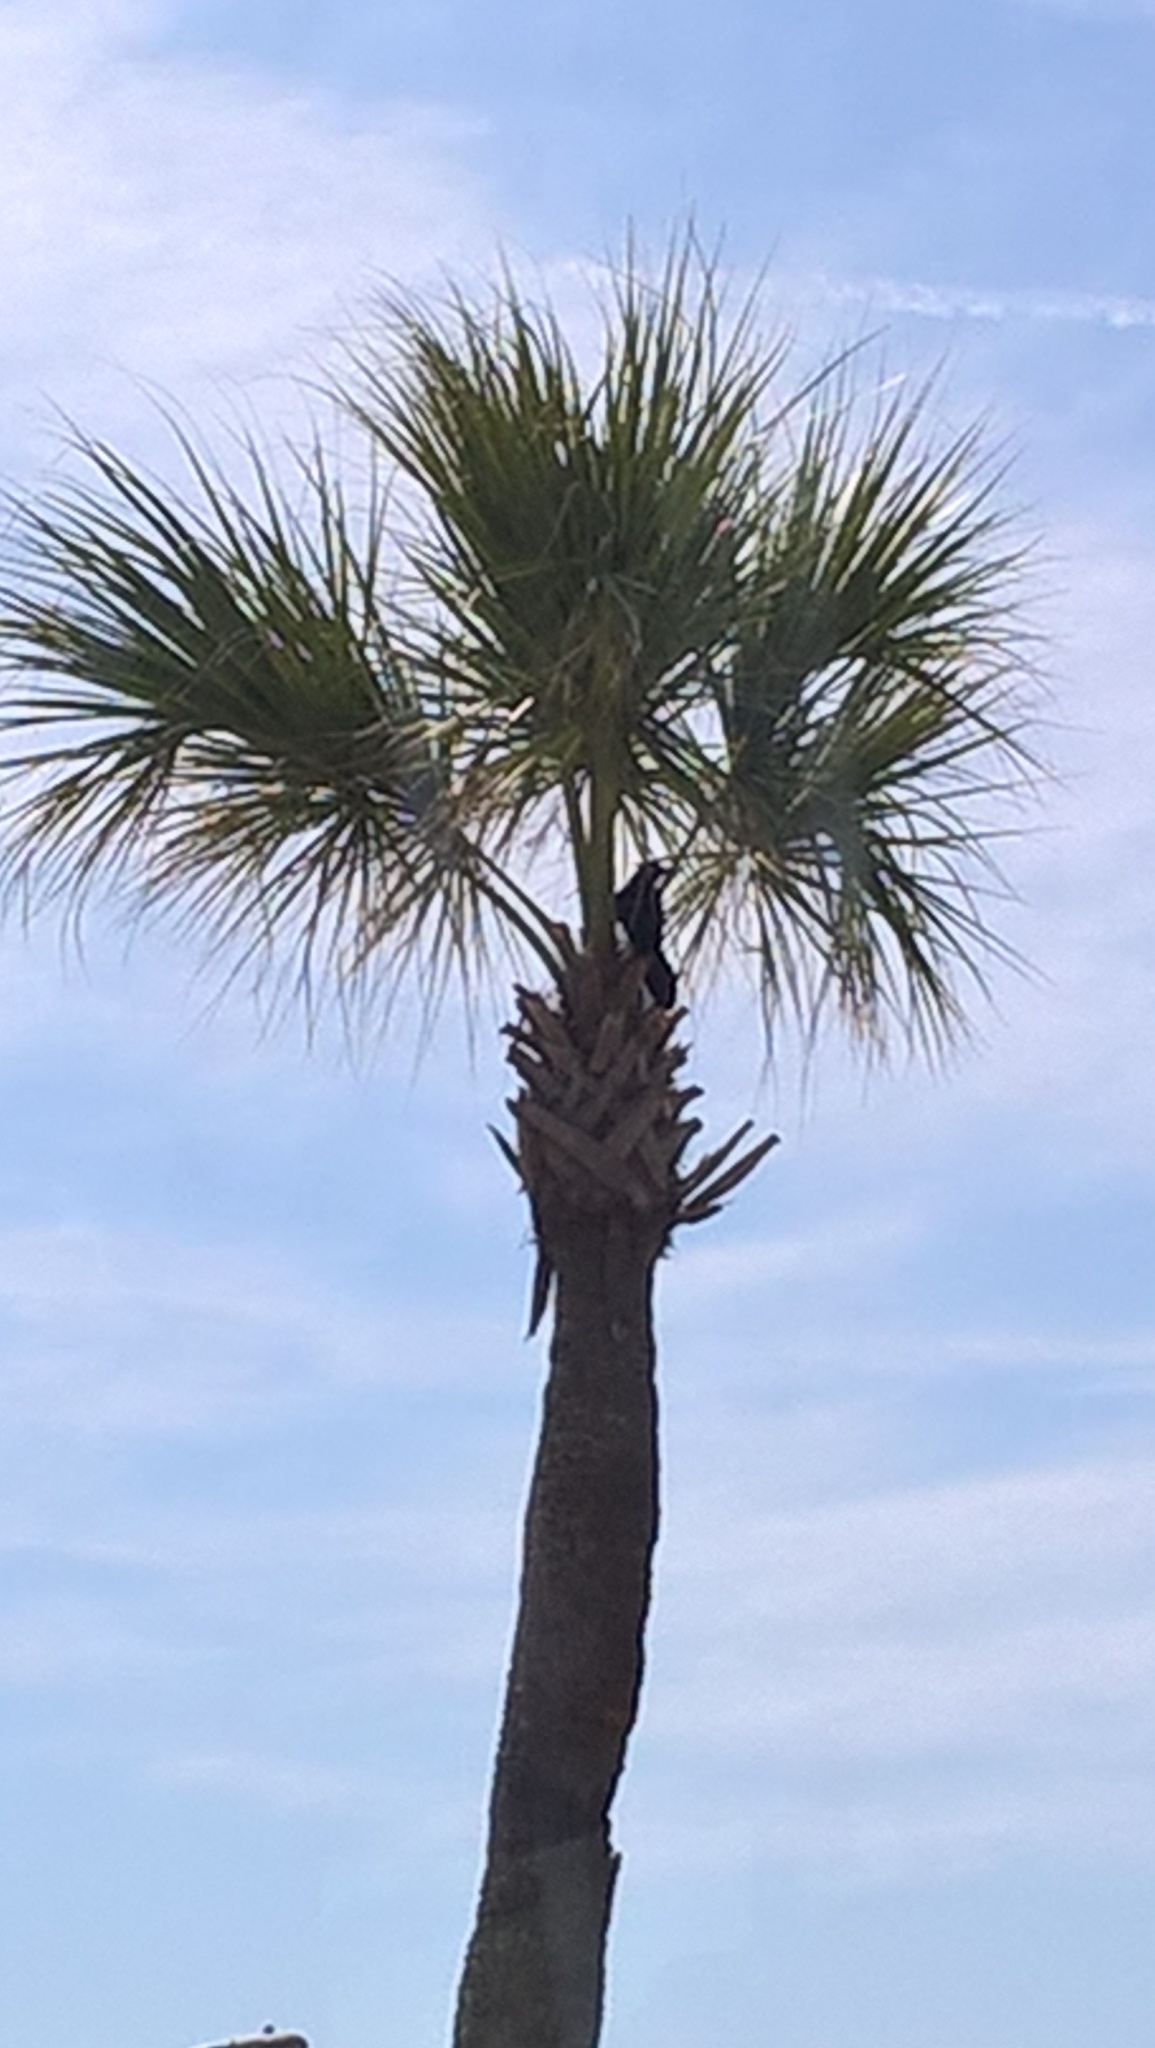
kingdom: Animalia
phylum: Chordata
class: Aves
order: Passeriformes
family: Icteridae
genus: Quiscalus
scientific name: Quiscalus major
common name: Boat-tailed grackle
